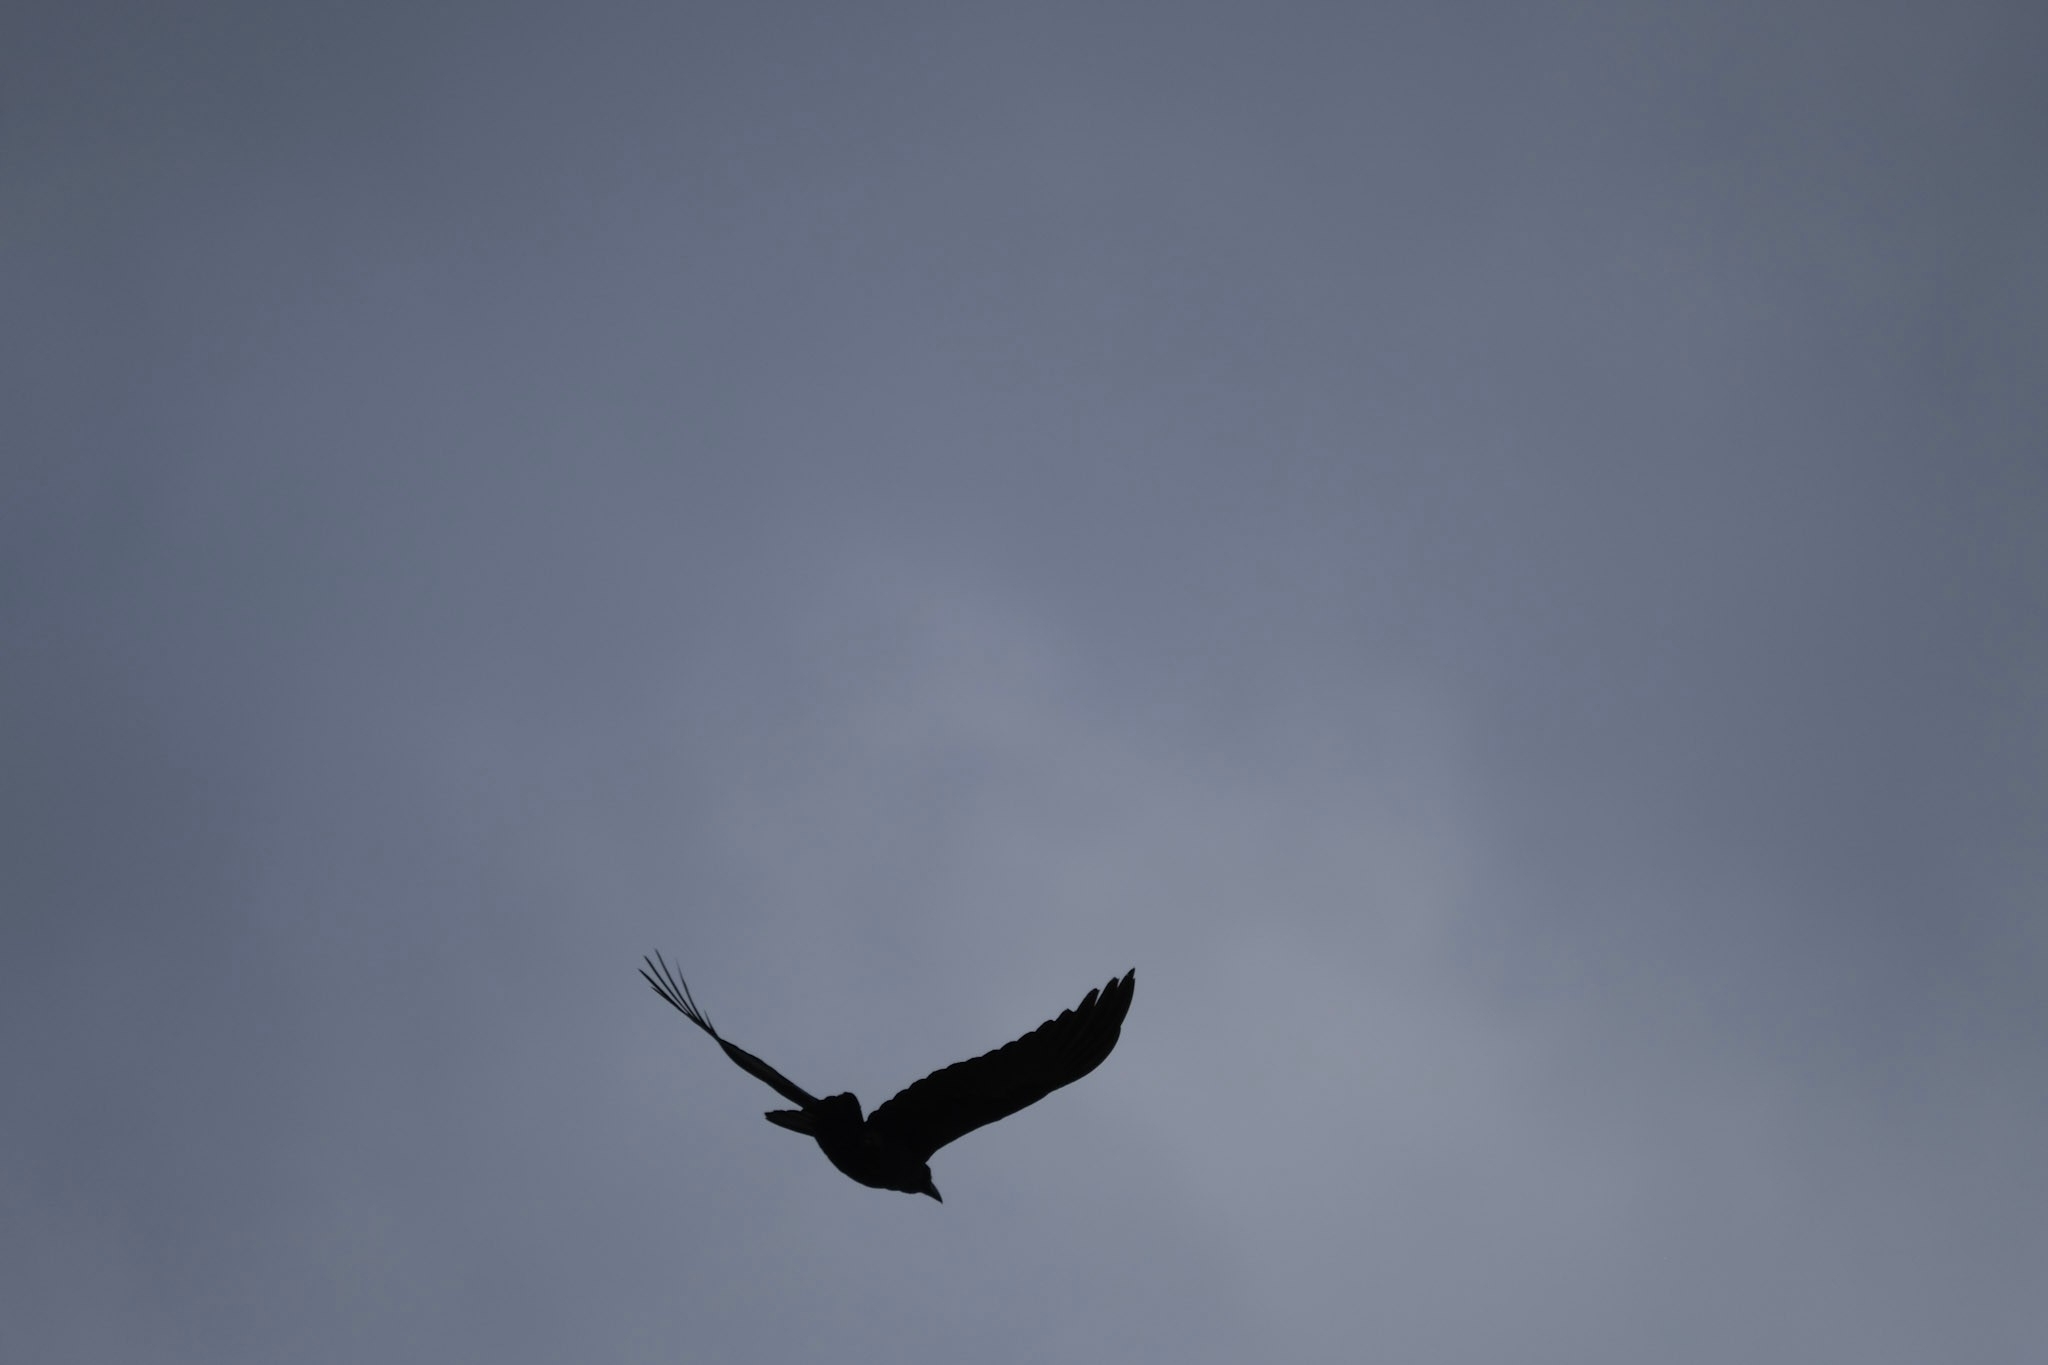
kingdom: Animalia
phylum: Chordata
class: Aves
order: Passeriformes
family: Corvidae
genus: Corvus
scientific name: Corvus tasmanicus
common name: Forest raven
